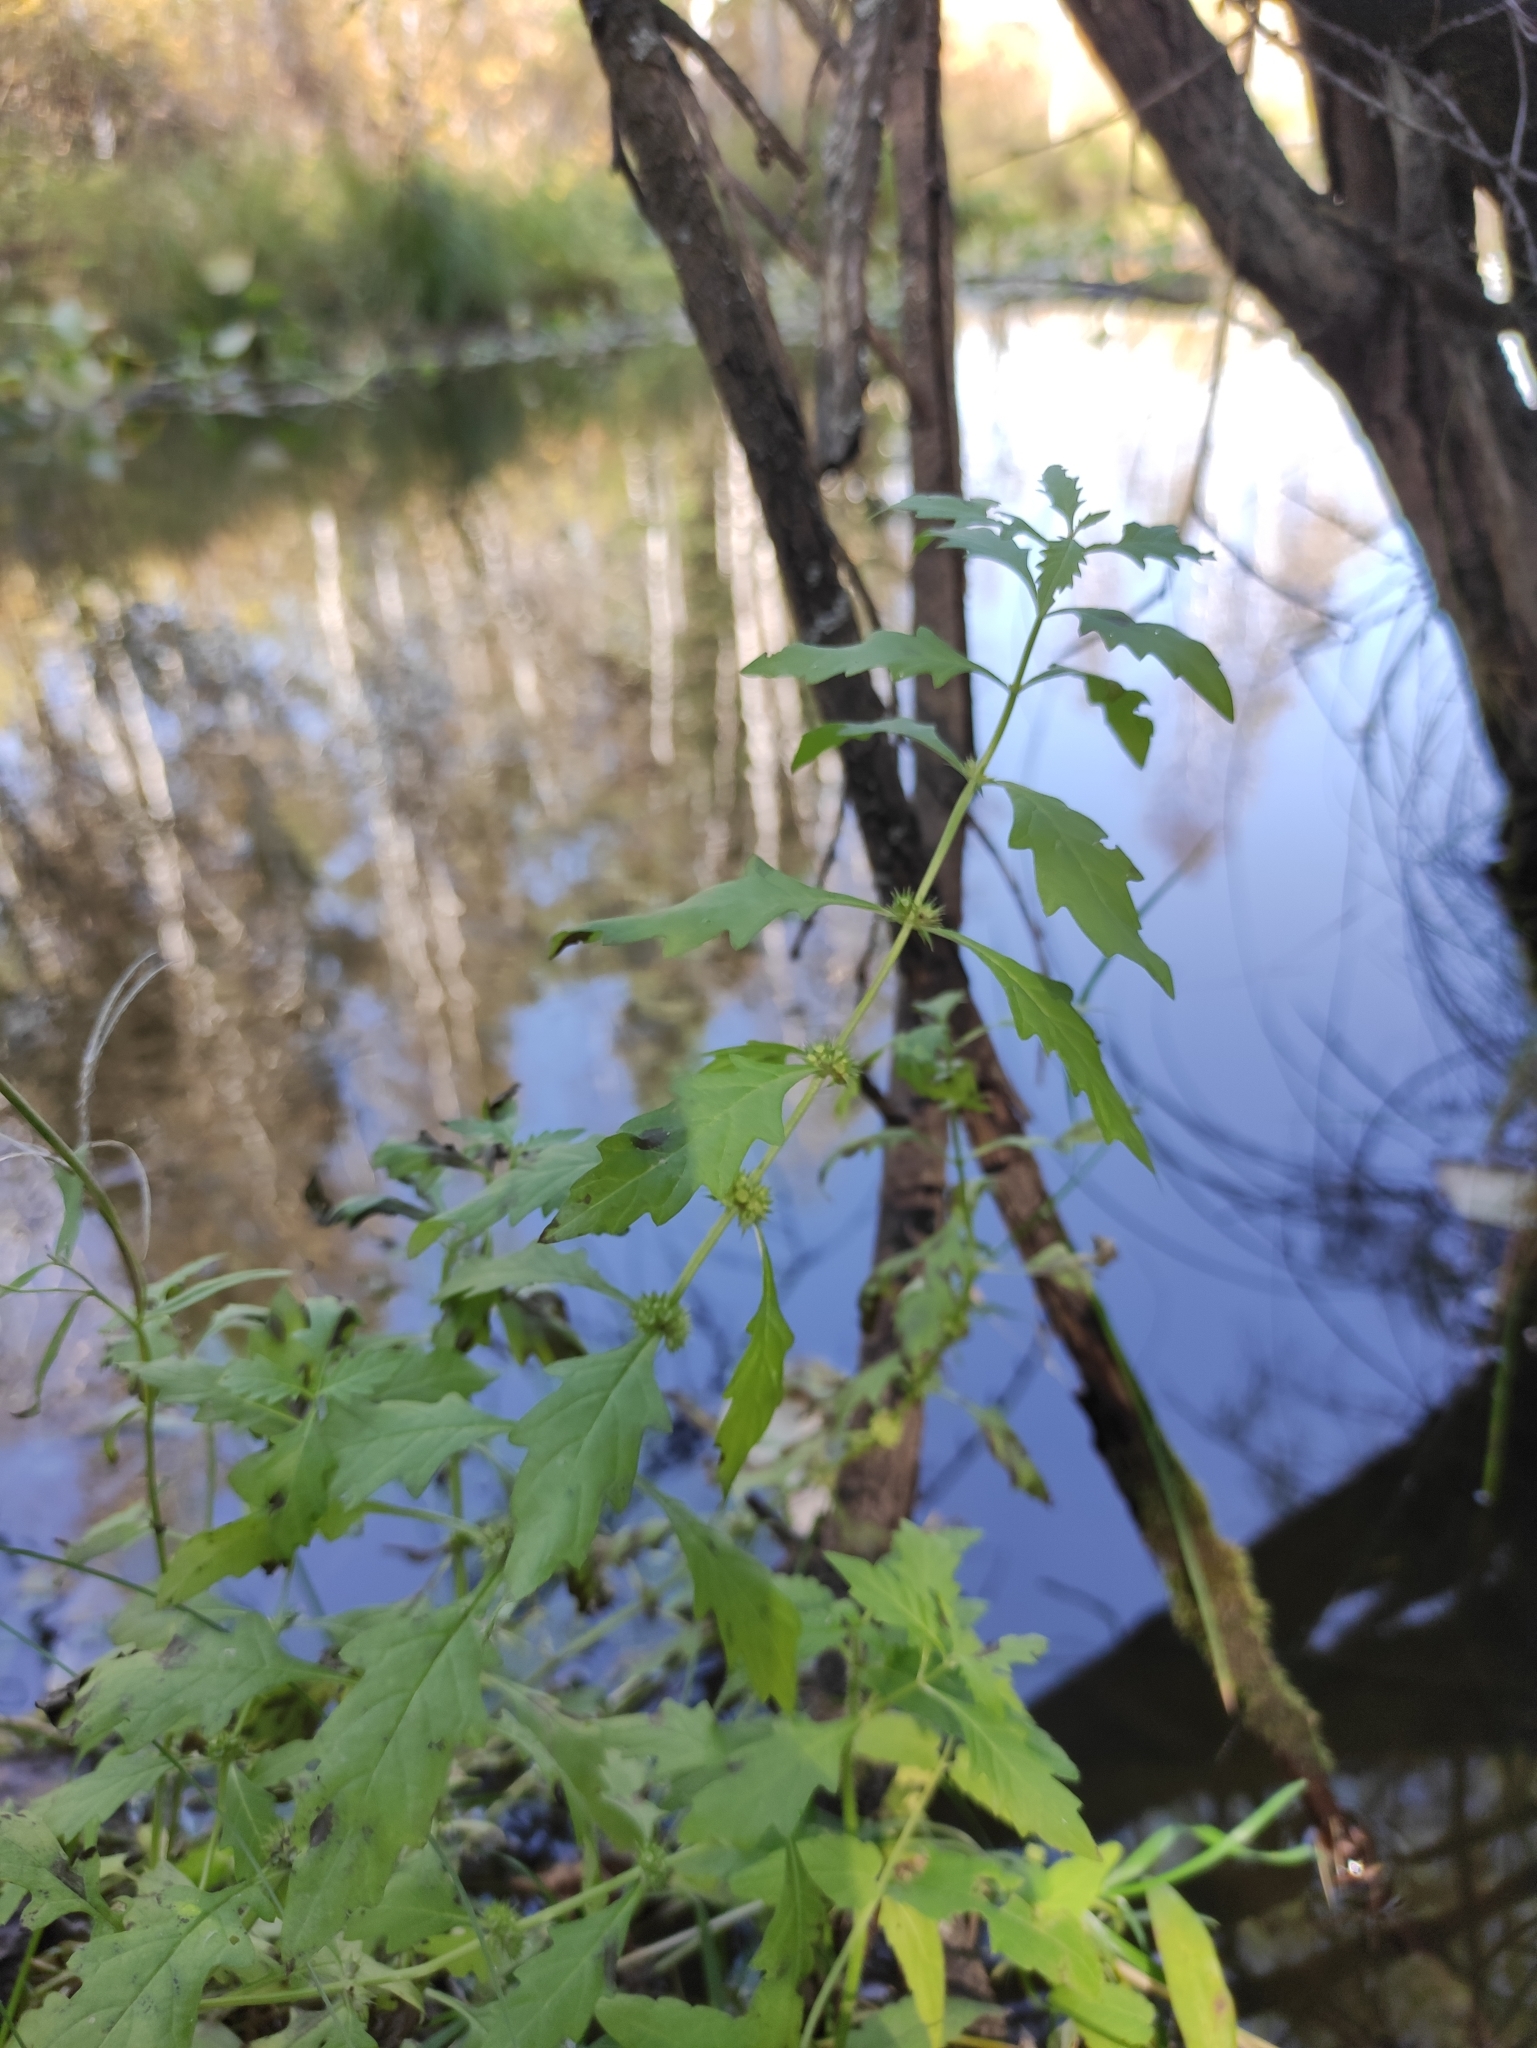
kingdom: Plantae
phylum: Tracheophyta
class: Magnoliopsida
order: Lamiales
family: Lamiaceae
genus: Lycopus
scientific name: Lycopus europaeus
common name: European bugleweed
